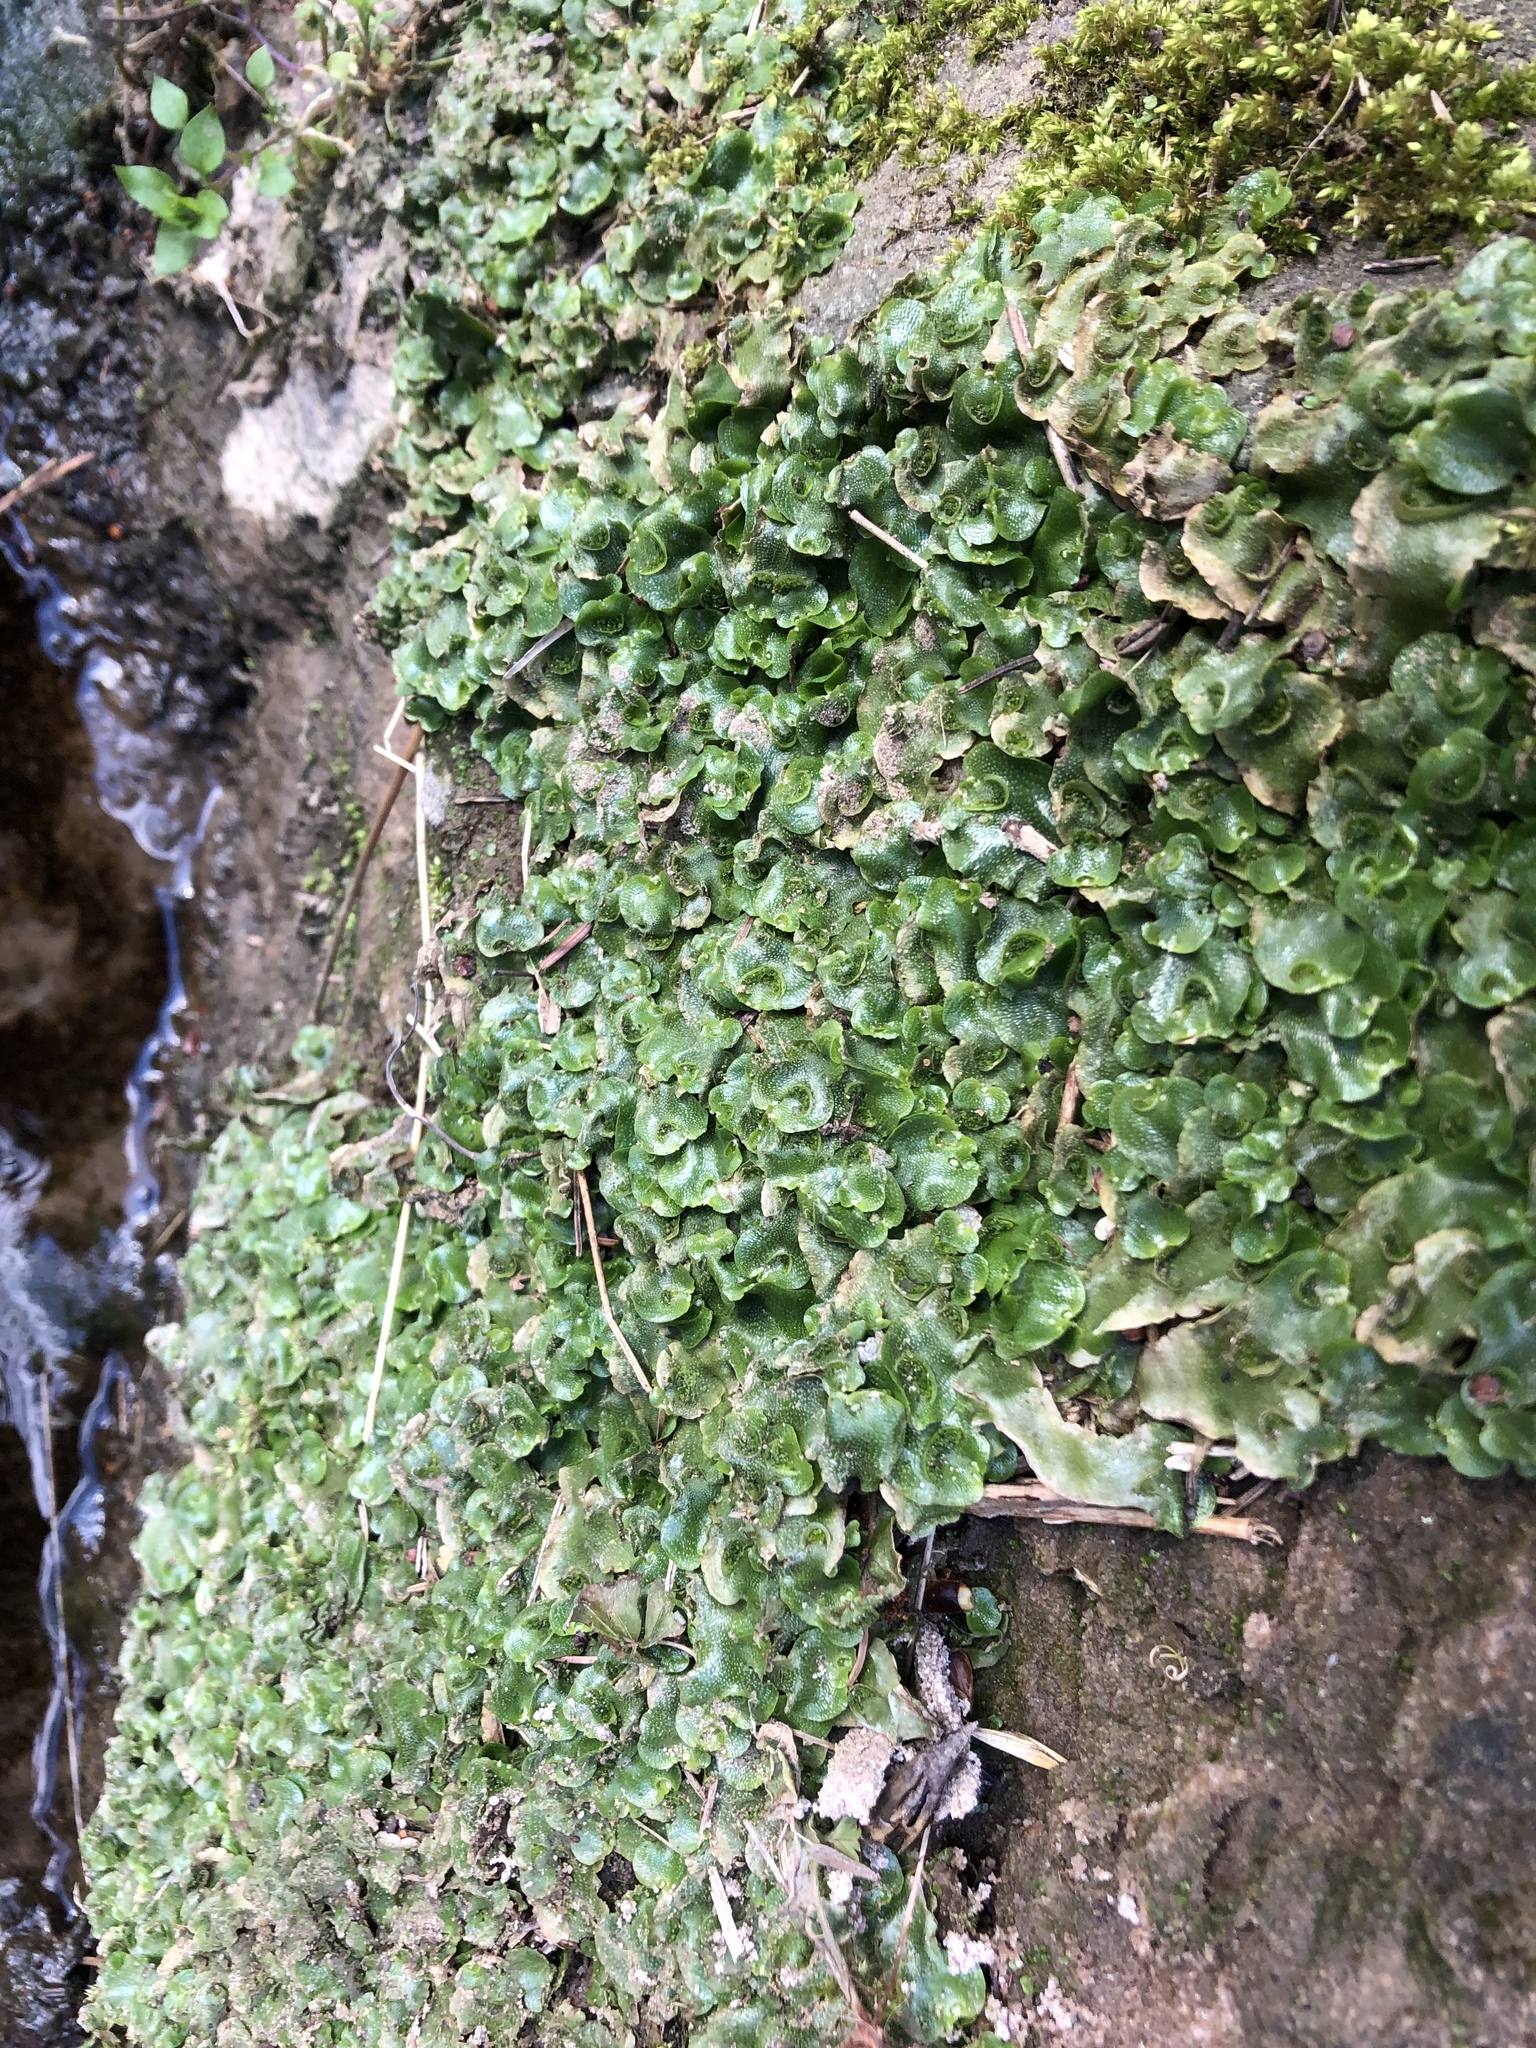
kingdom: Plantae
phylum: Marchantiophyta
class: Marchantiopsida
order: Lunulariales
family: Lunulariaceae
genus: Lunularia
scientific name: Lunularia cruciata
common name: Crescent-cup liverwort
